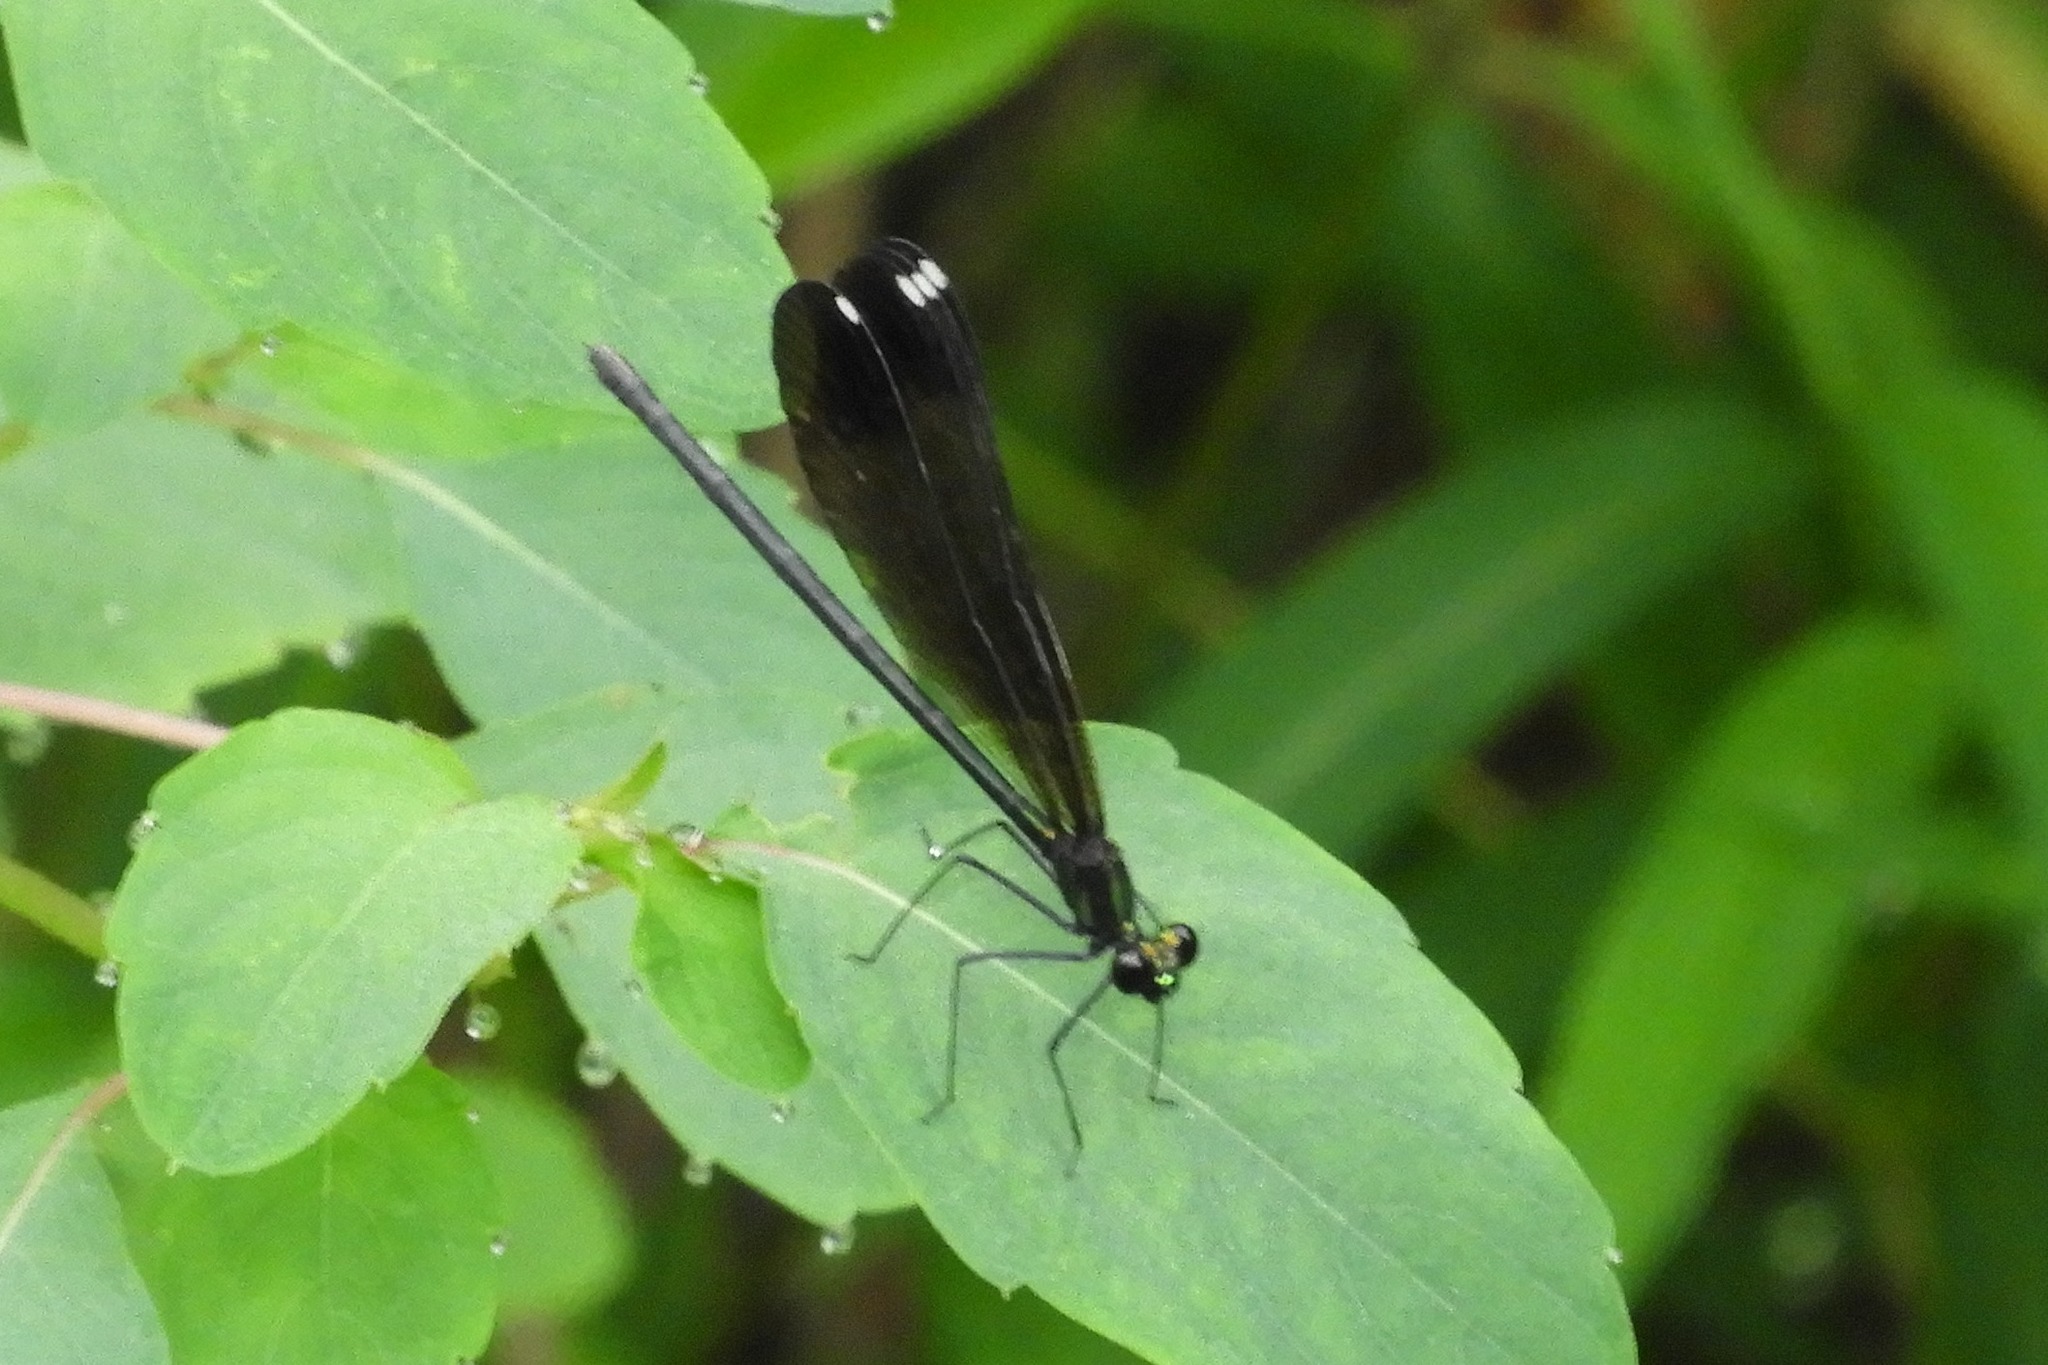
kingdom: Animalia
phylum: Arthropoda
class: Insecta
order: Odonata
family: Calopterygidae
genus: Calopteryx
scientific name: Calopteryx maculata
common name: Ebony jewelwing
